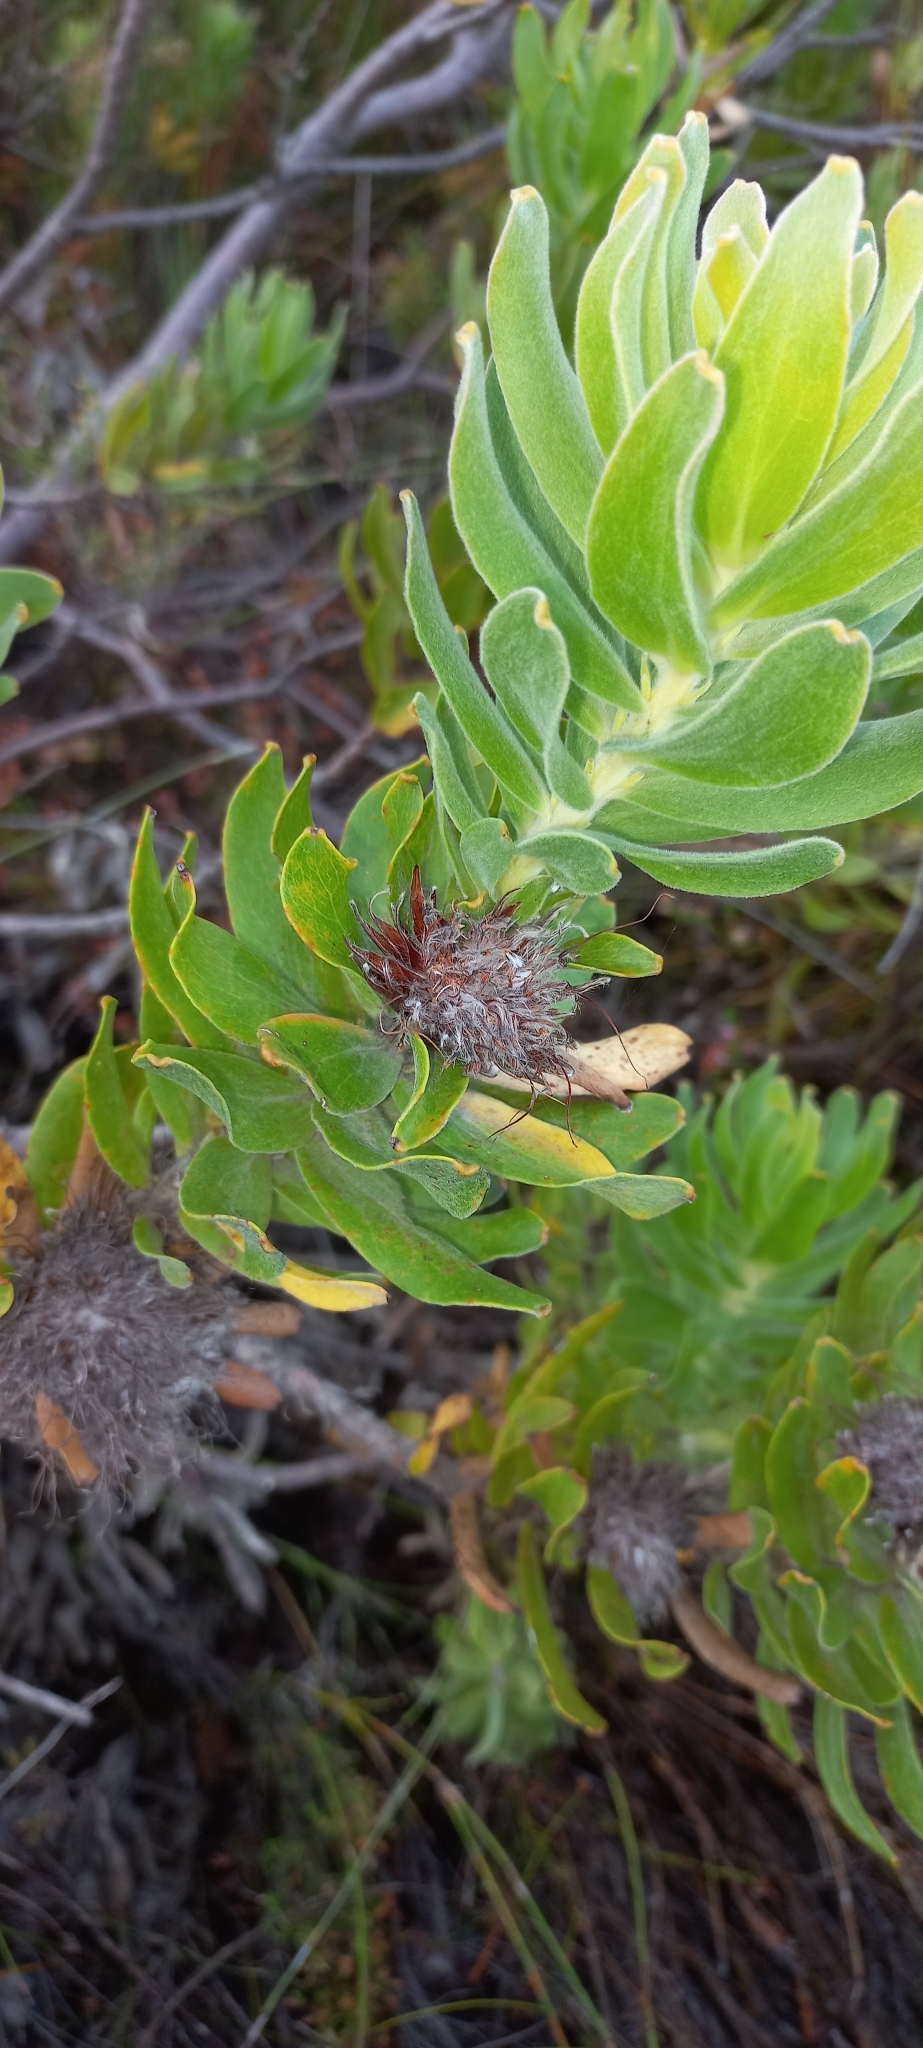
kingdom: Plantae
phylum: Tracheophyta
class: Magnoliopsida
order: Proteales
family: Proteaceae
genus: Leucospermum
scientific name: Leucospermum oleifolium
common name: Matches
